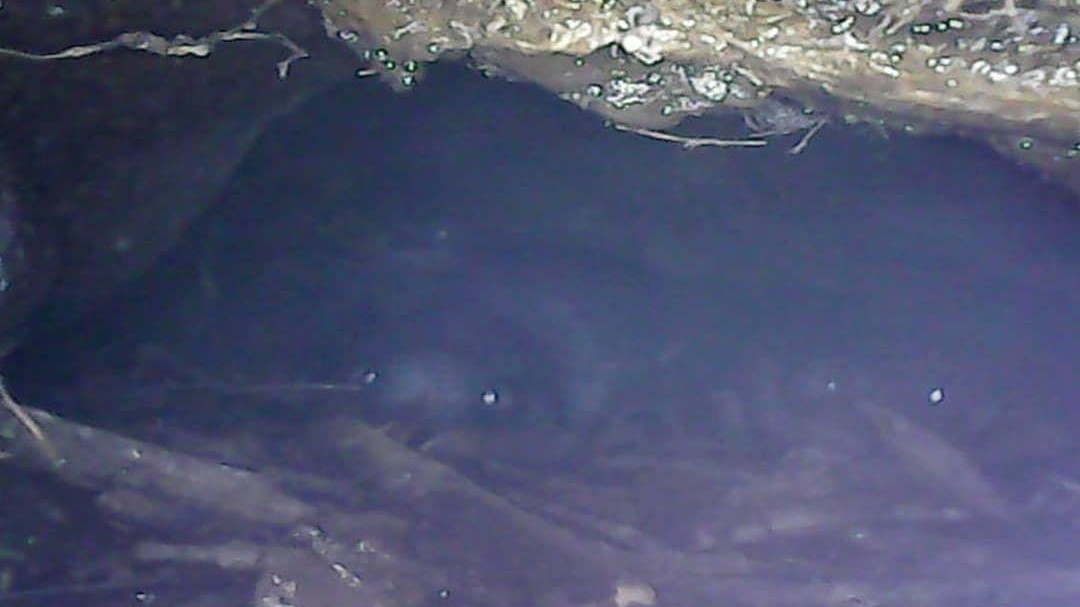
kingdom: Animalia
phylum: Chordata
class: Aves
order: Sphenisciformes
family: Spheniscidae
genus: Eudyptula
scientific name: Eudyptula minor
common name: Little penguin
